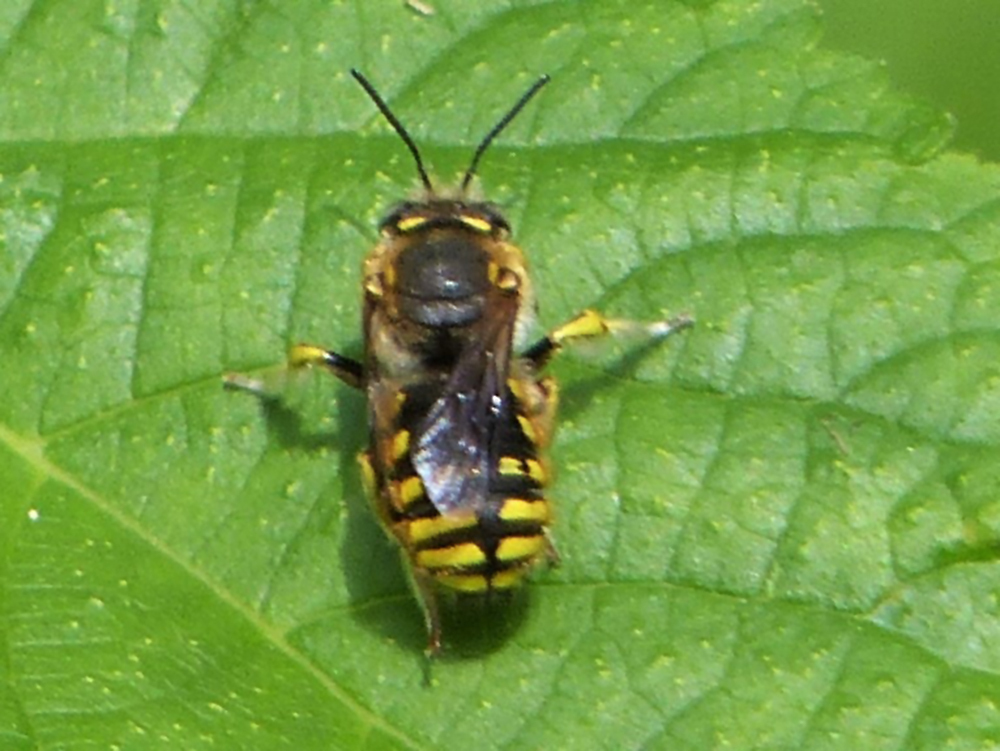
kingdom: Animalia
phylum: Arthropoda
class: Insecta
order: Hymenoptera
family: Megachilidae
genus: Anthidium
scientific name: Anthidium manicatum
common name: Wool carder bee
